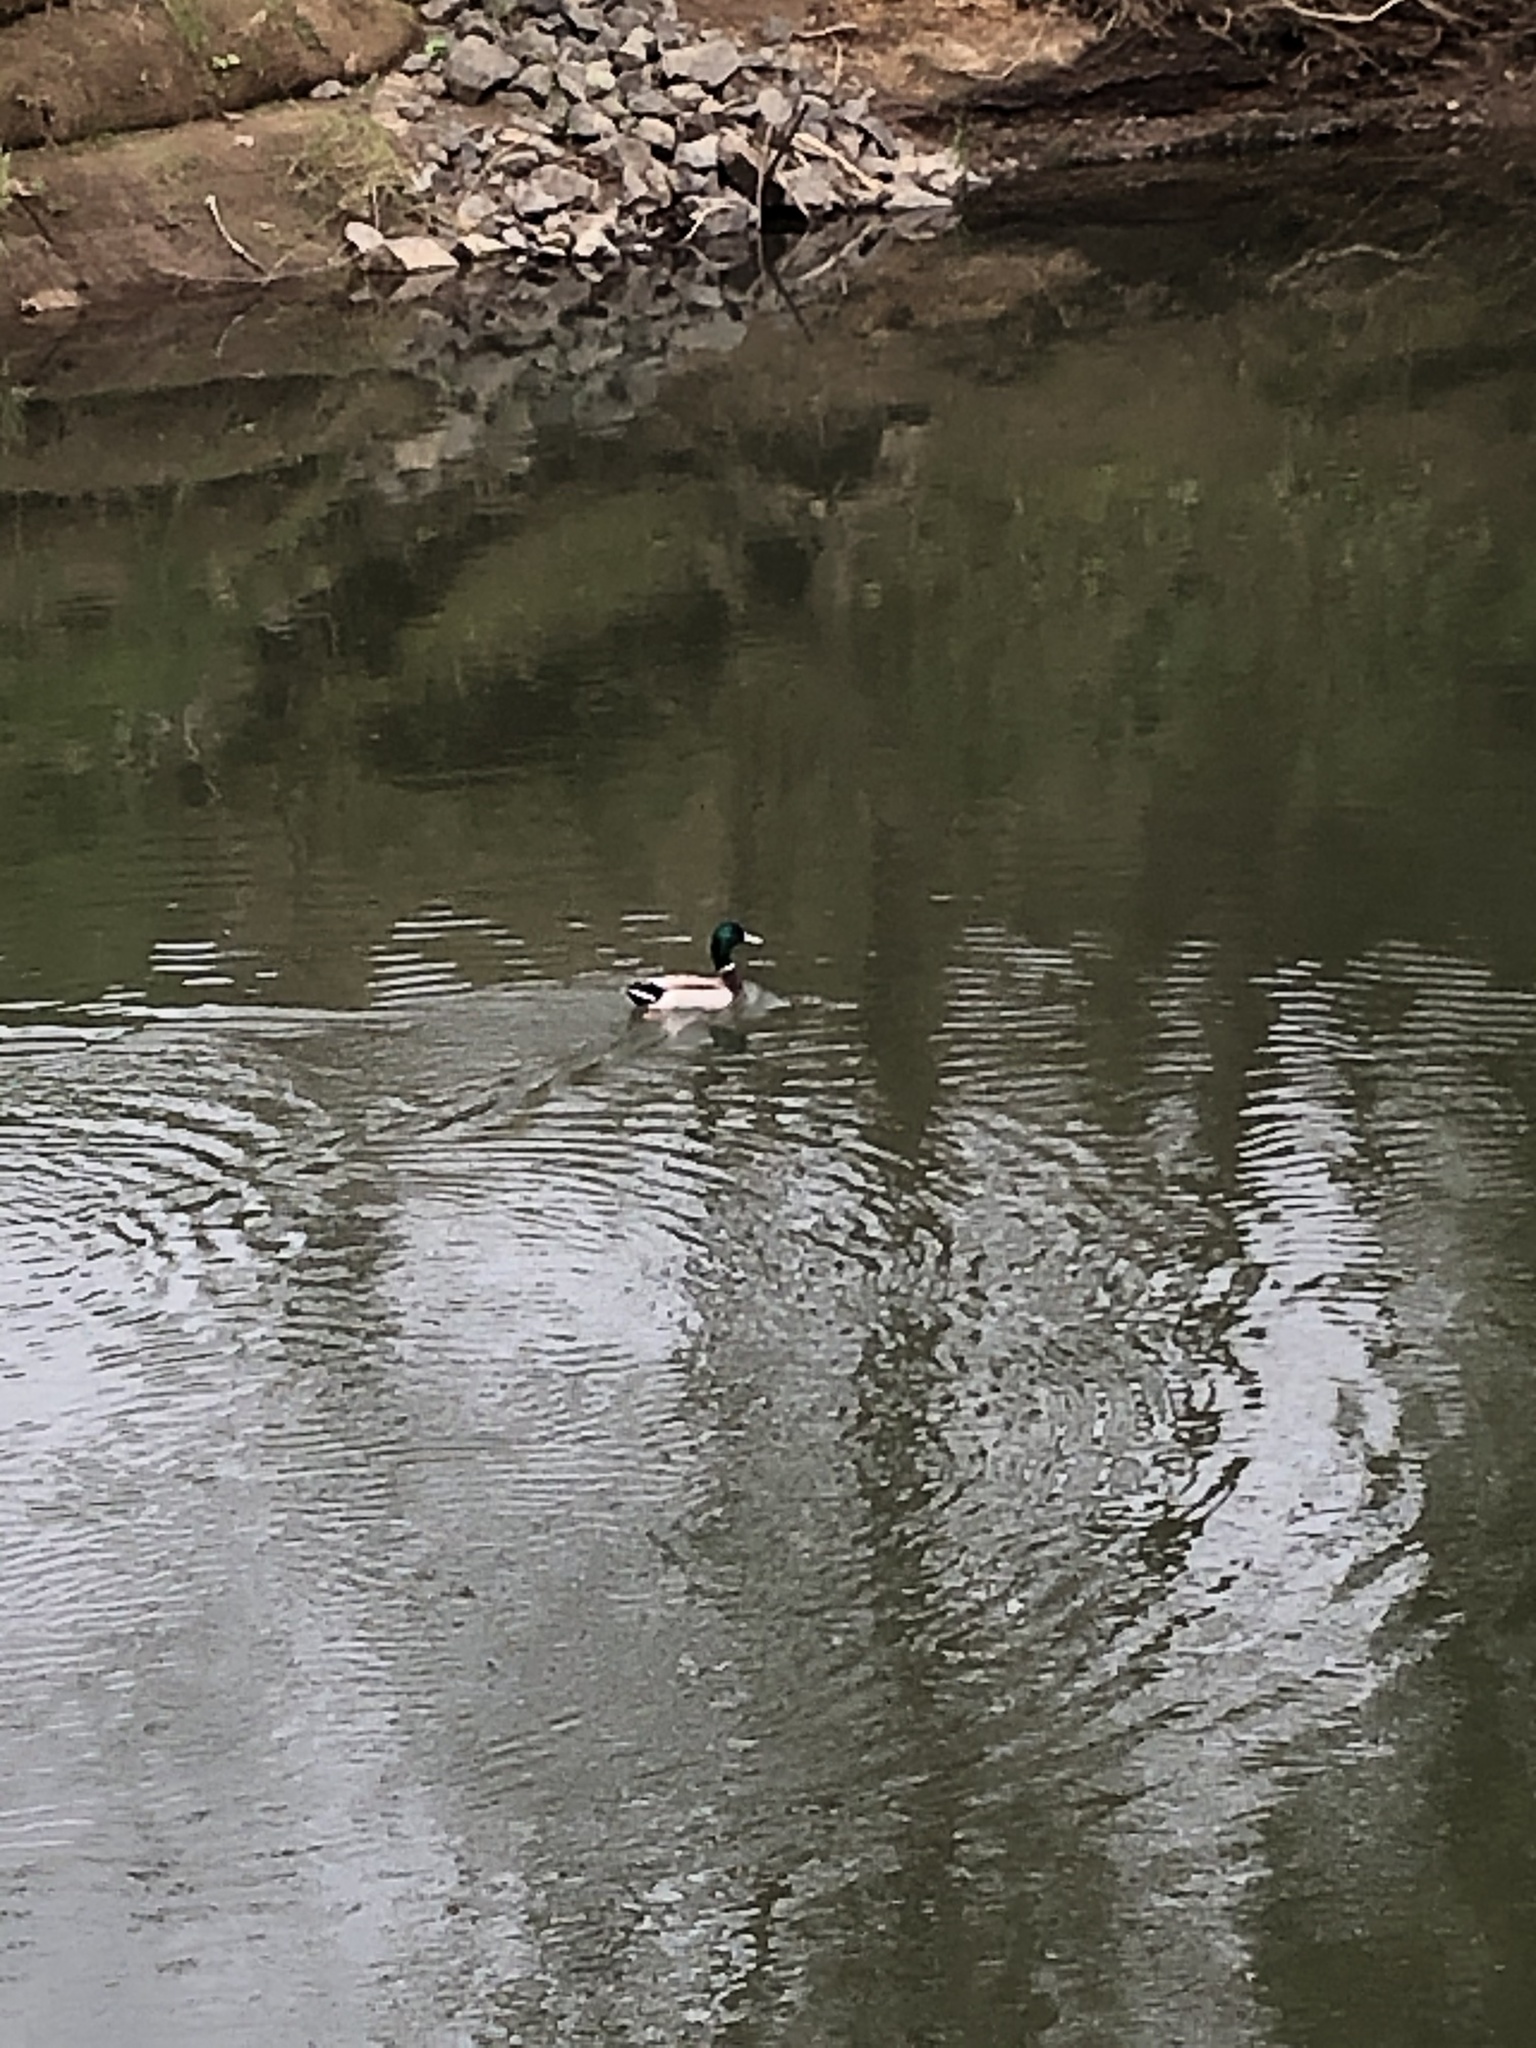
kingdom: Animalia
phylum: Chordata
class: Aves
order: Anseriformes
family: Anatidae
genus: Anas
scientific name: Anas platyrhynchos
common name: Mallard
